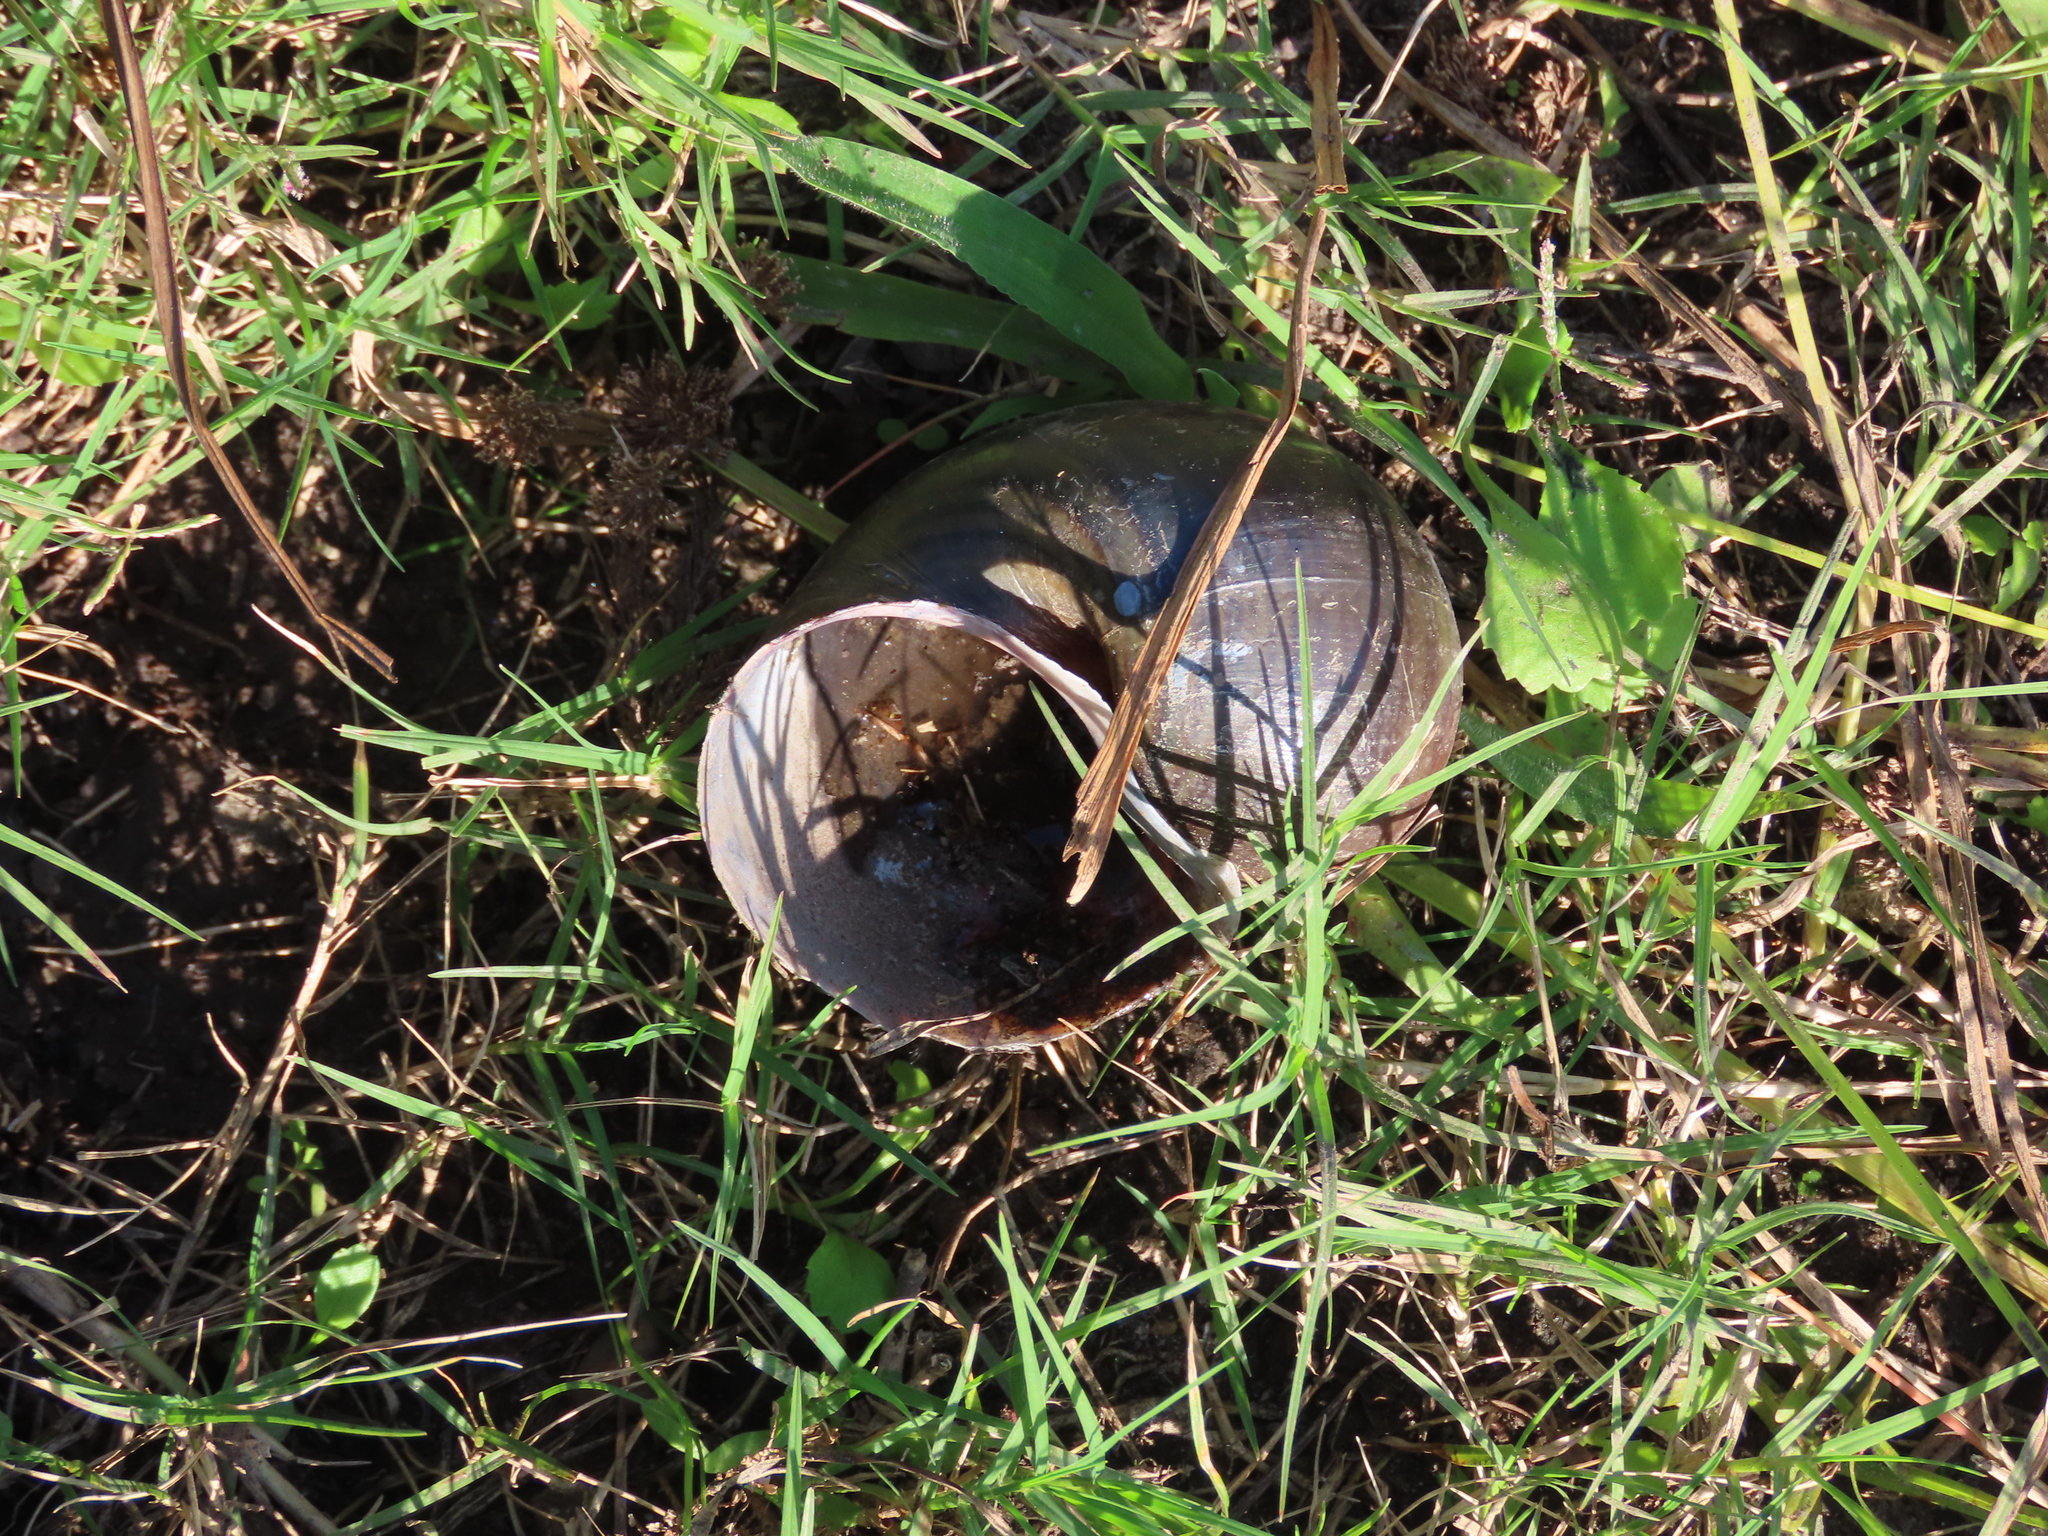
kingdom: Animalia
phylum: Mollusca
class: Gastropoda
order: Architaenioglossa
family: Ampullariidae
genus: Pomacea
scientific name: Pomacea canaliculata
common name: Channeled applesnail
